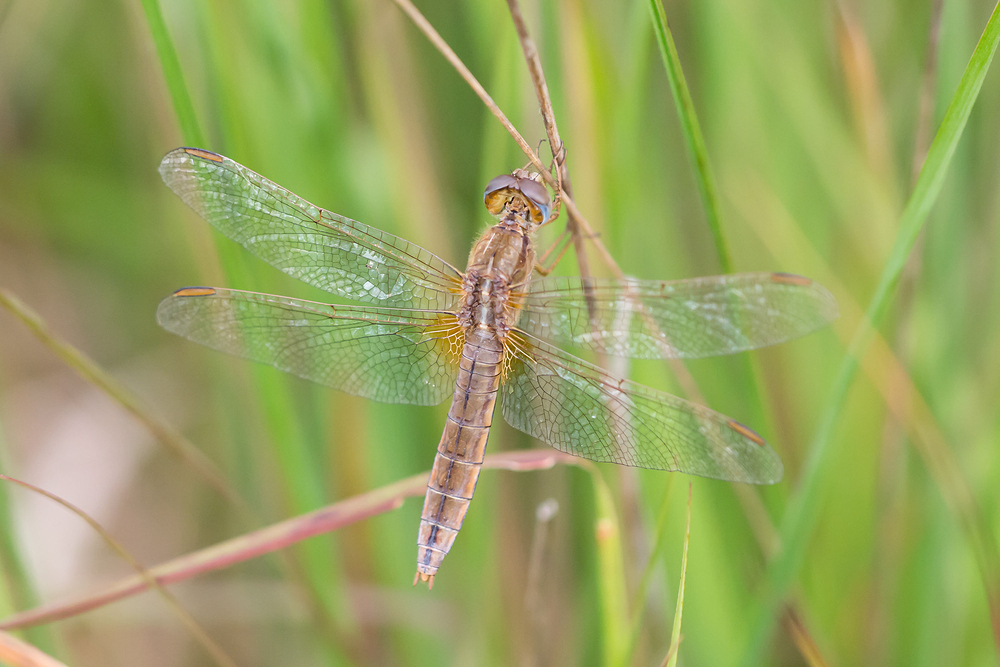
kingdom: Animalia
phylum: Arthropoda
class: Insecta
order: Odonata
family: Libellulidae
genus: Crocothemis
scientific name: Crocothemis erythraea
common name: Scarlet dragonfly
